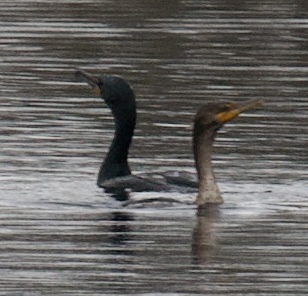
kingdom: Animalia
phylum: Chordata
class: Aves
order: Suliformes
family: Phalacrocoracidae
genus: Phalacrocorax
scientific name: Phalacrocorax auritus
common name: Double-crested cormorant
